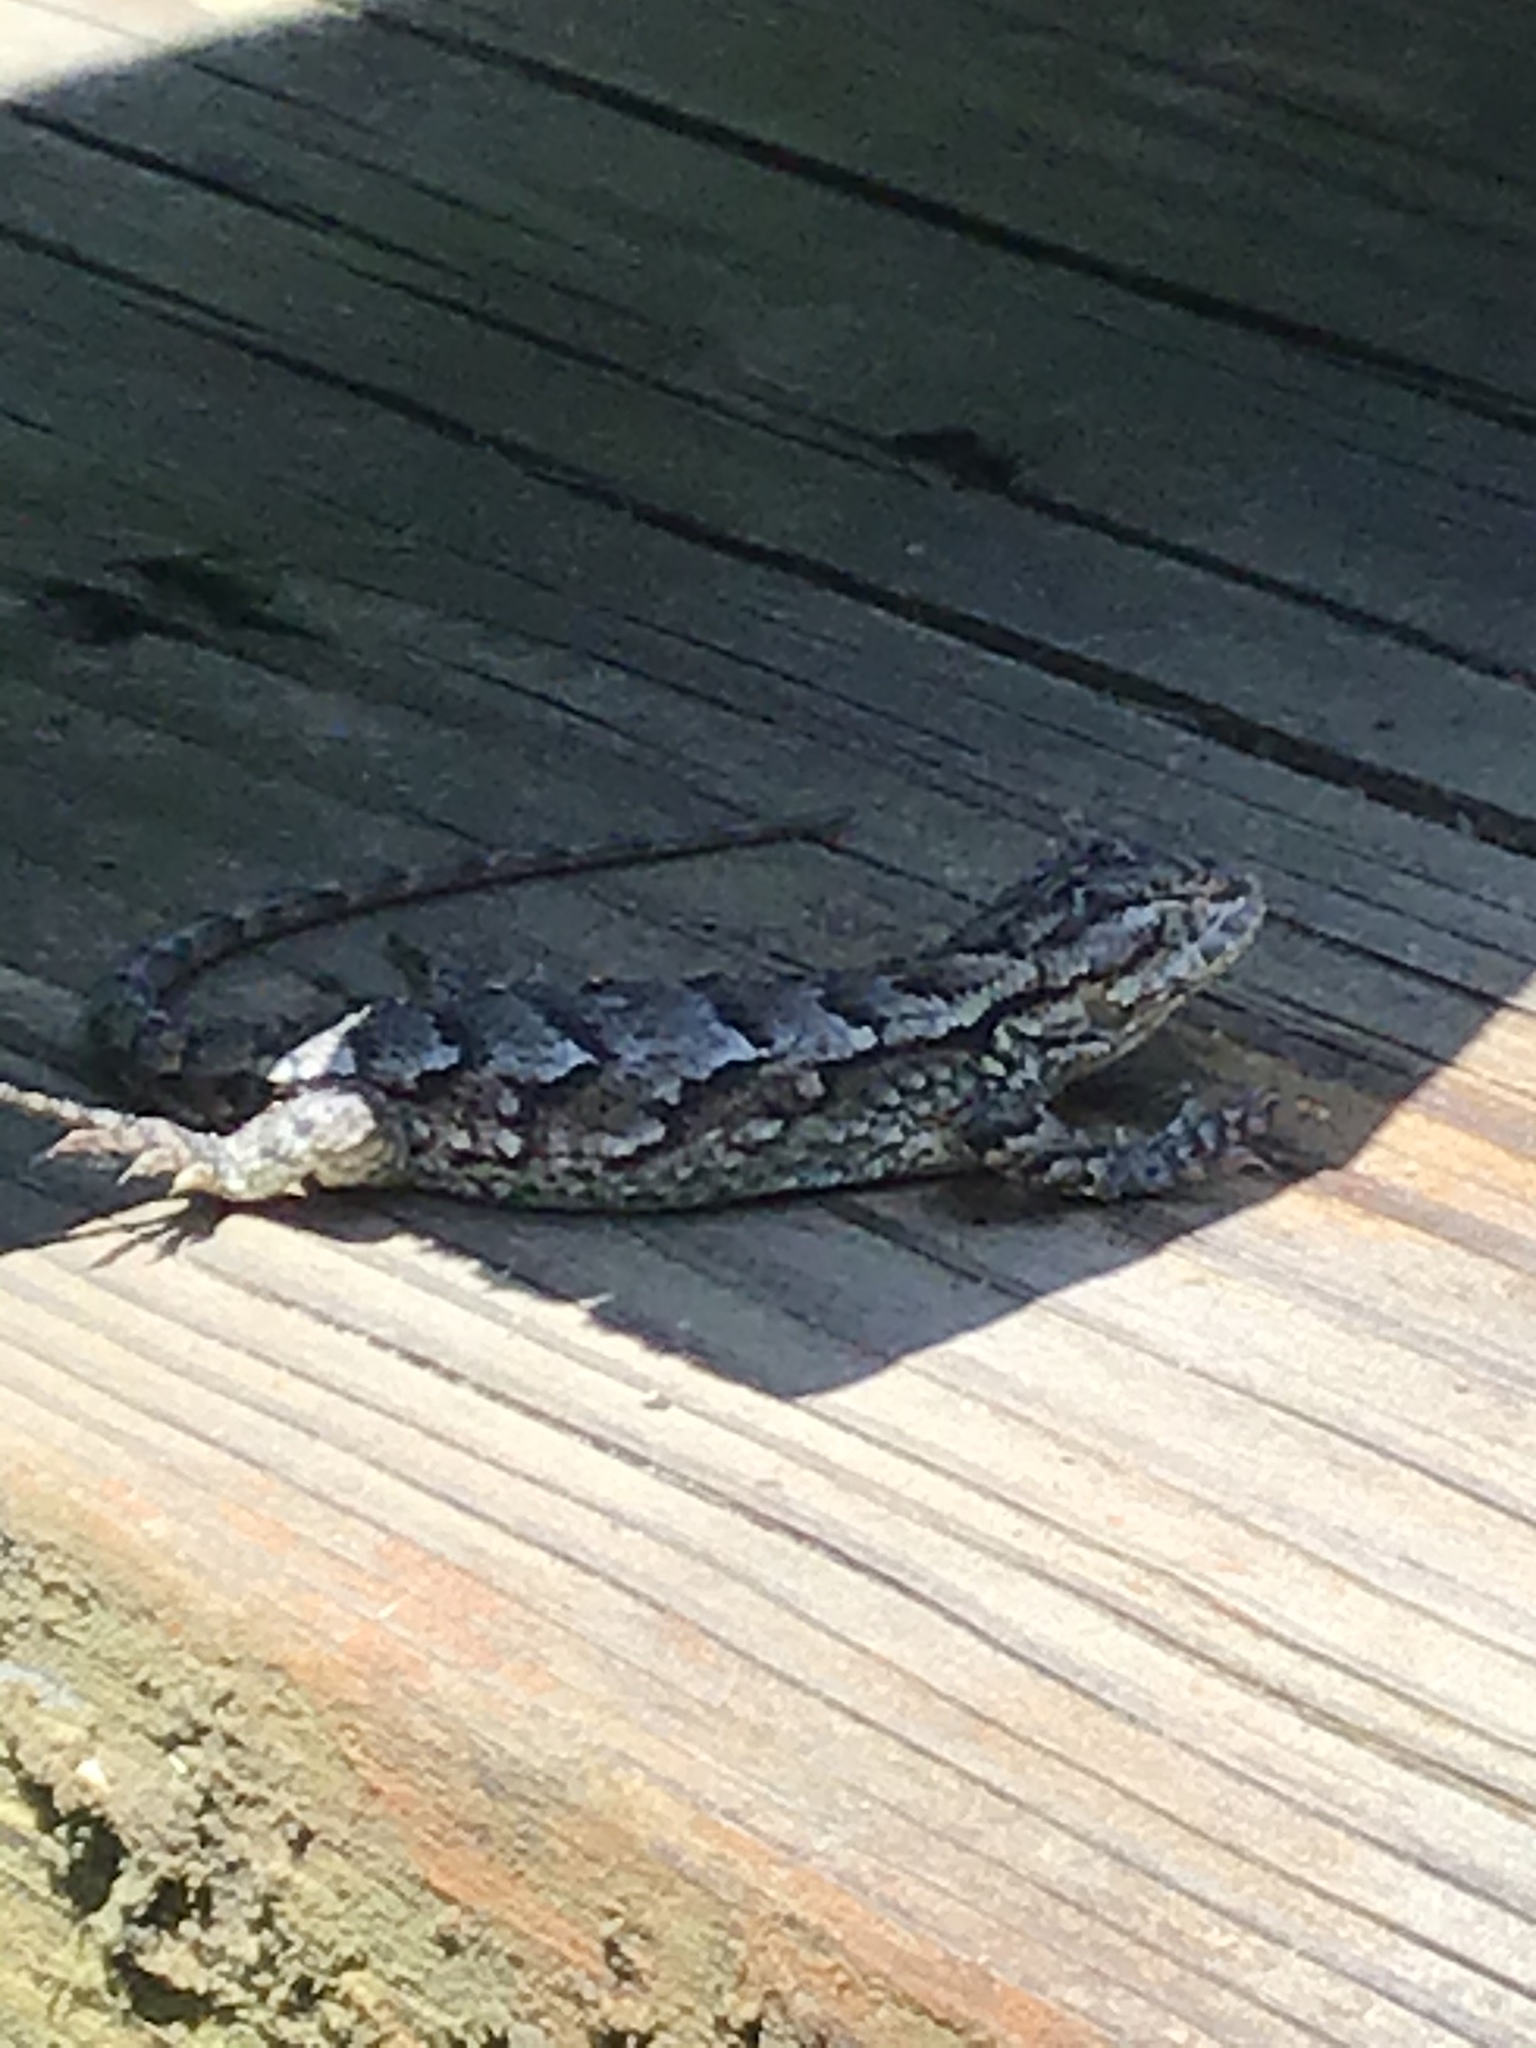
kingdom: Animalia
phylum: Chordata
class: Squamata
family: Phrynosomatidae
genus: Sceloporus
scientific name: Sceloporus undulatus
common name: Eastern fence lizard
